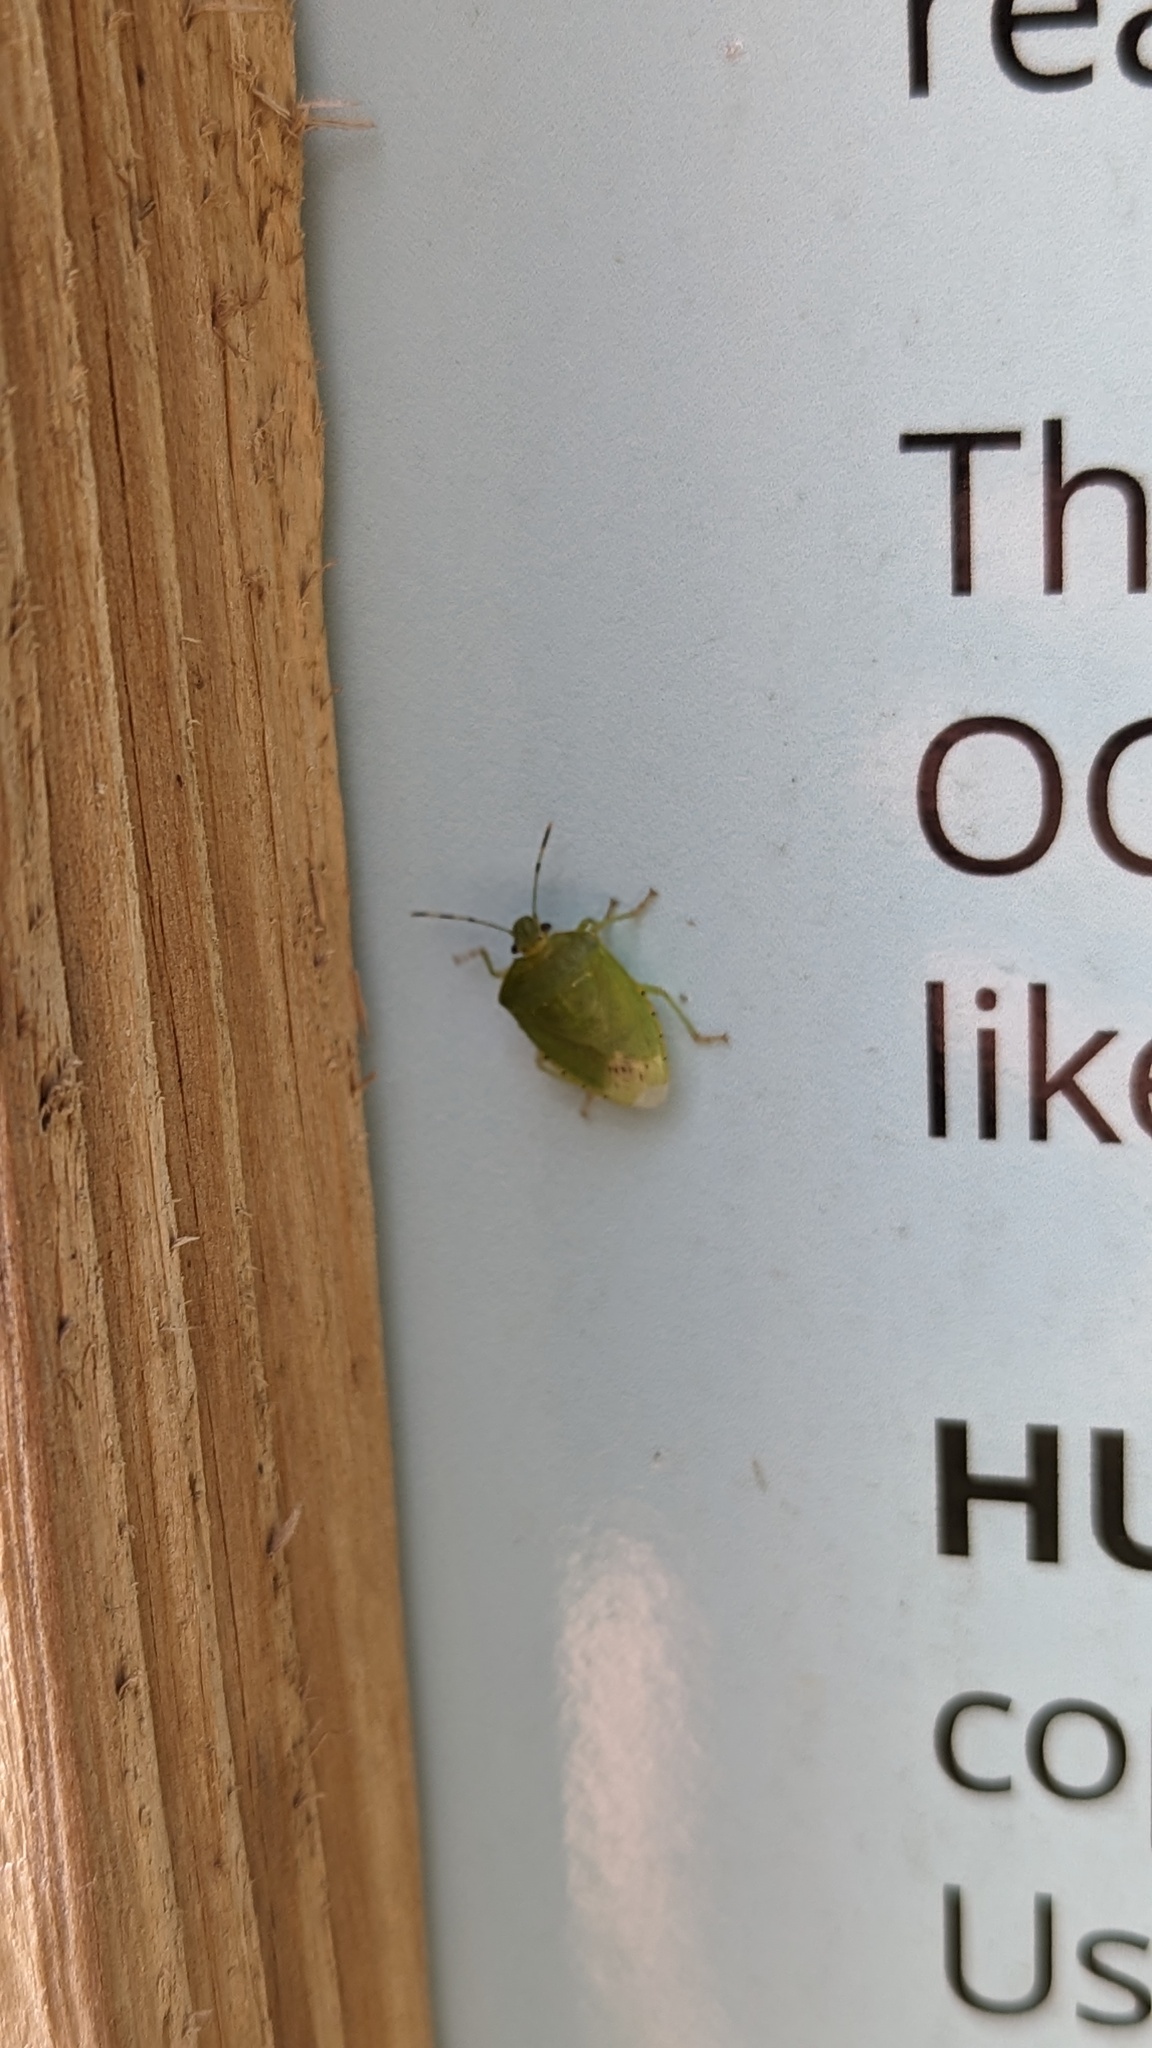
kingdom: Animalia
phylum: Arthropoda
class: Insecta
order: Hemiptera
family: Pentatomidae
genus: Chinavia
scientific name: Chinavia hilaris
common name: Green stink bug
